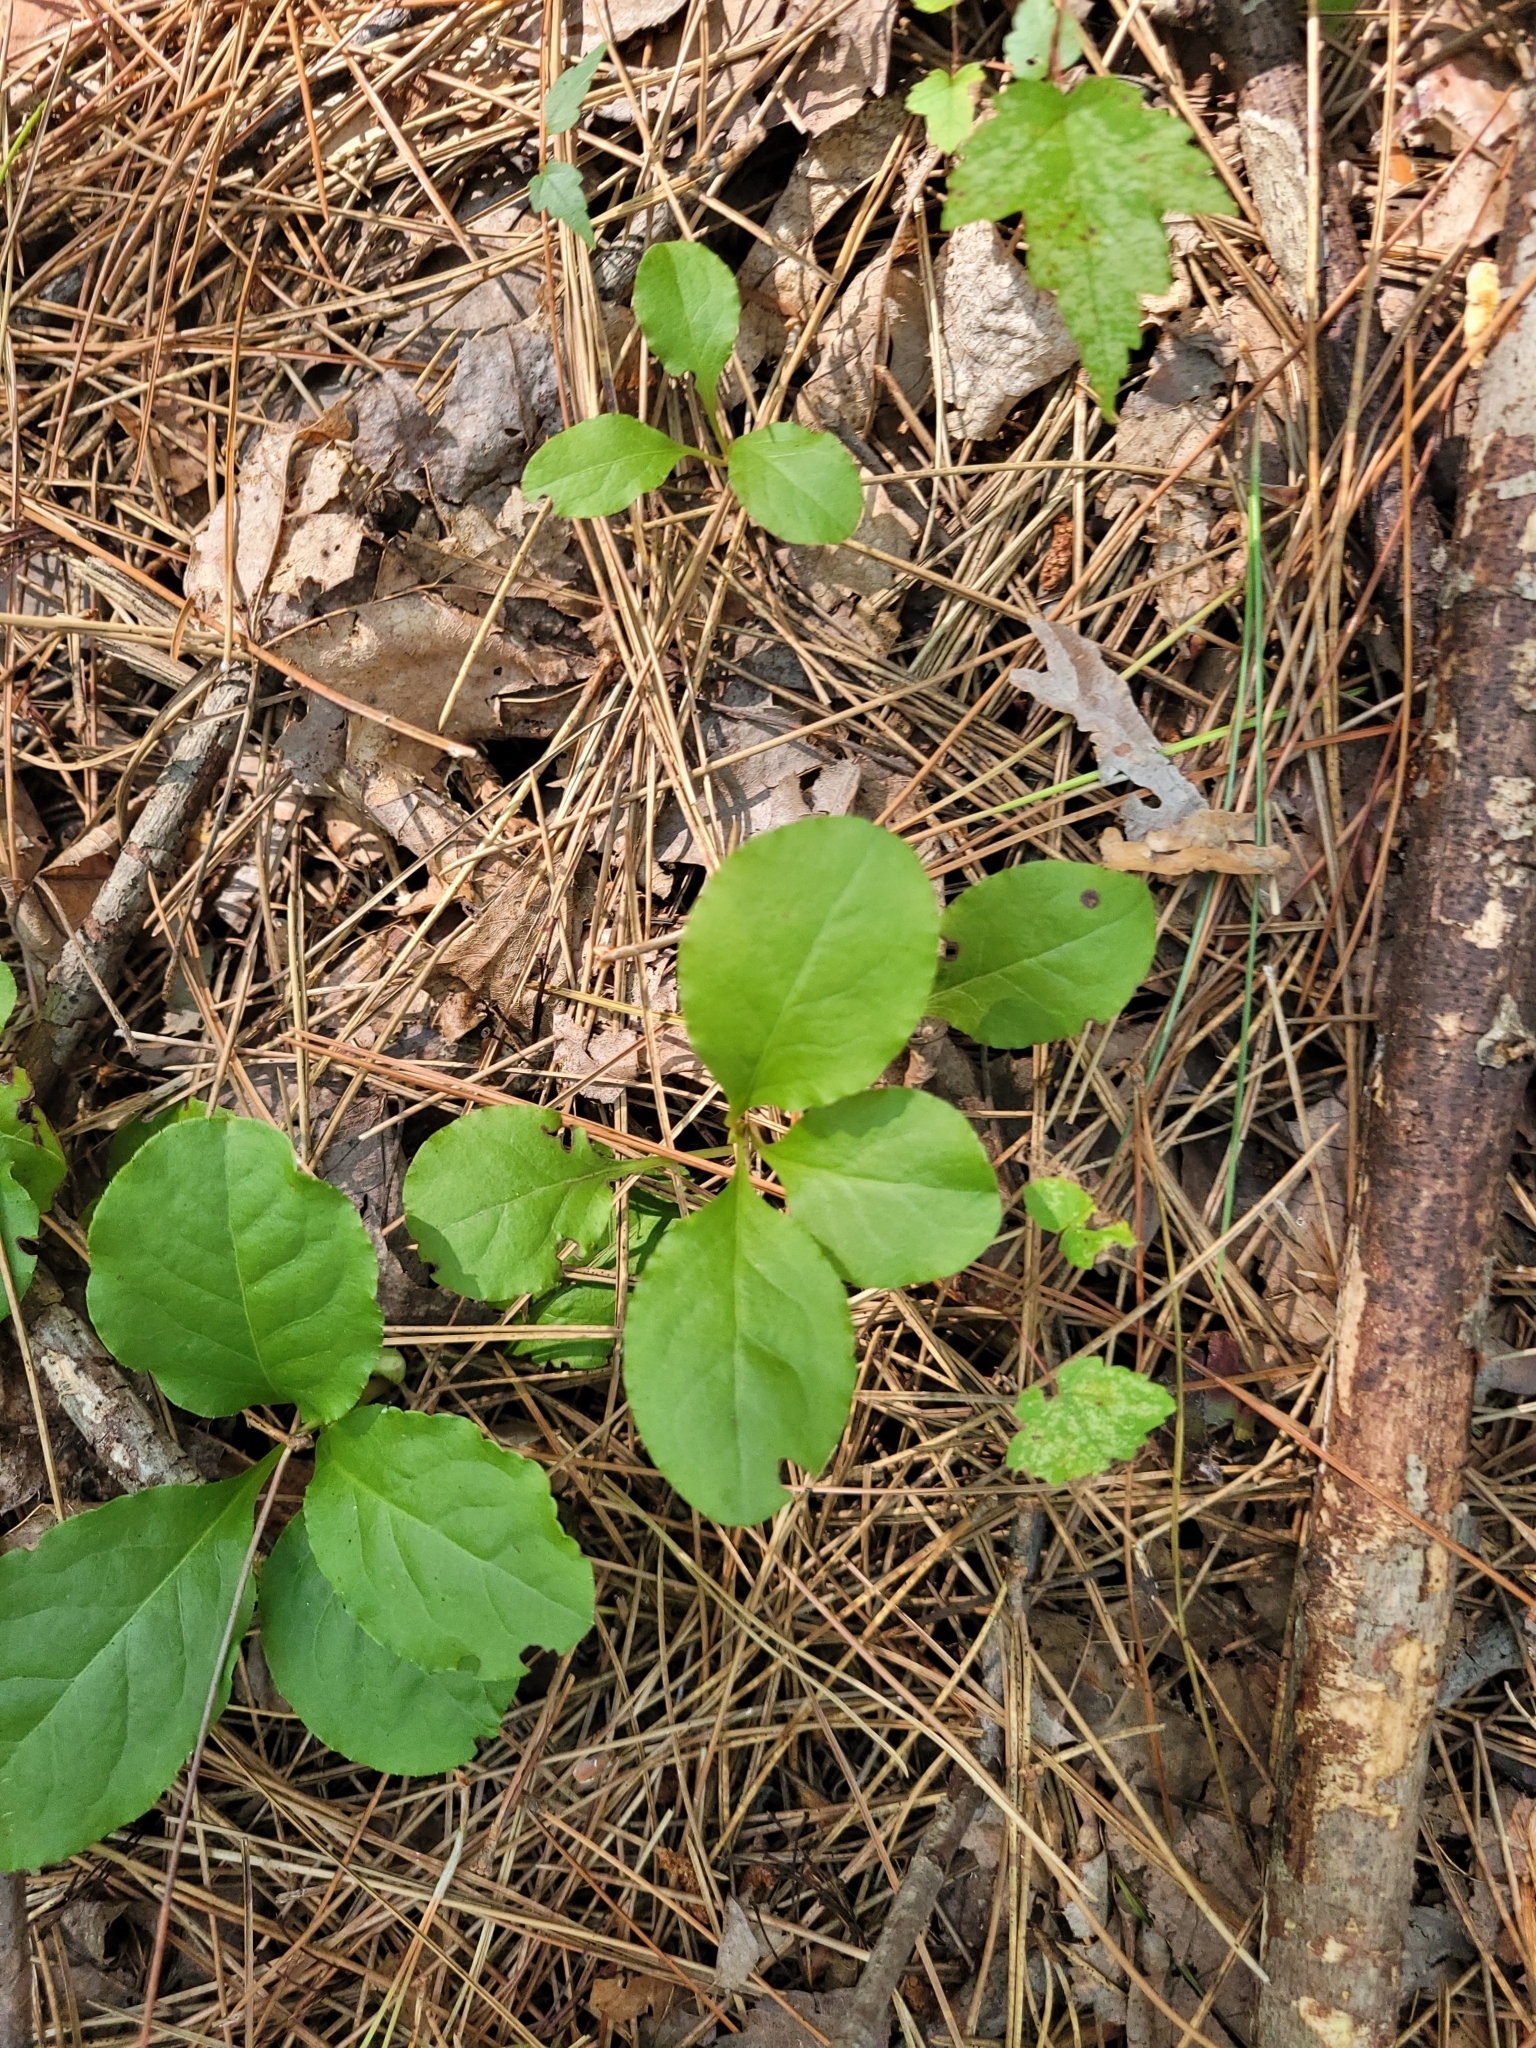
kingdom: Plantae
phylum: Tracheophyta
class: Magnoliopsida
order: Ericales
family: Ericaceae
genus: Pyrola
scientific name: Pyrola elliptica
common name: Shinleaf
